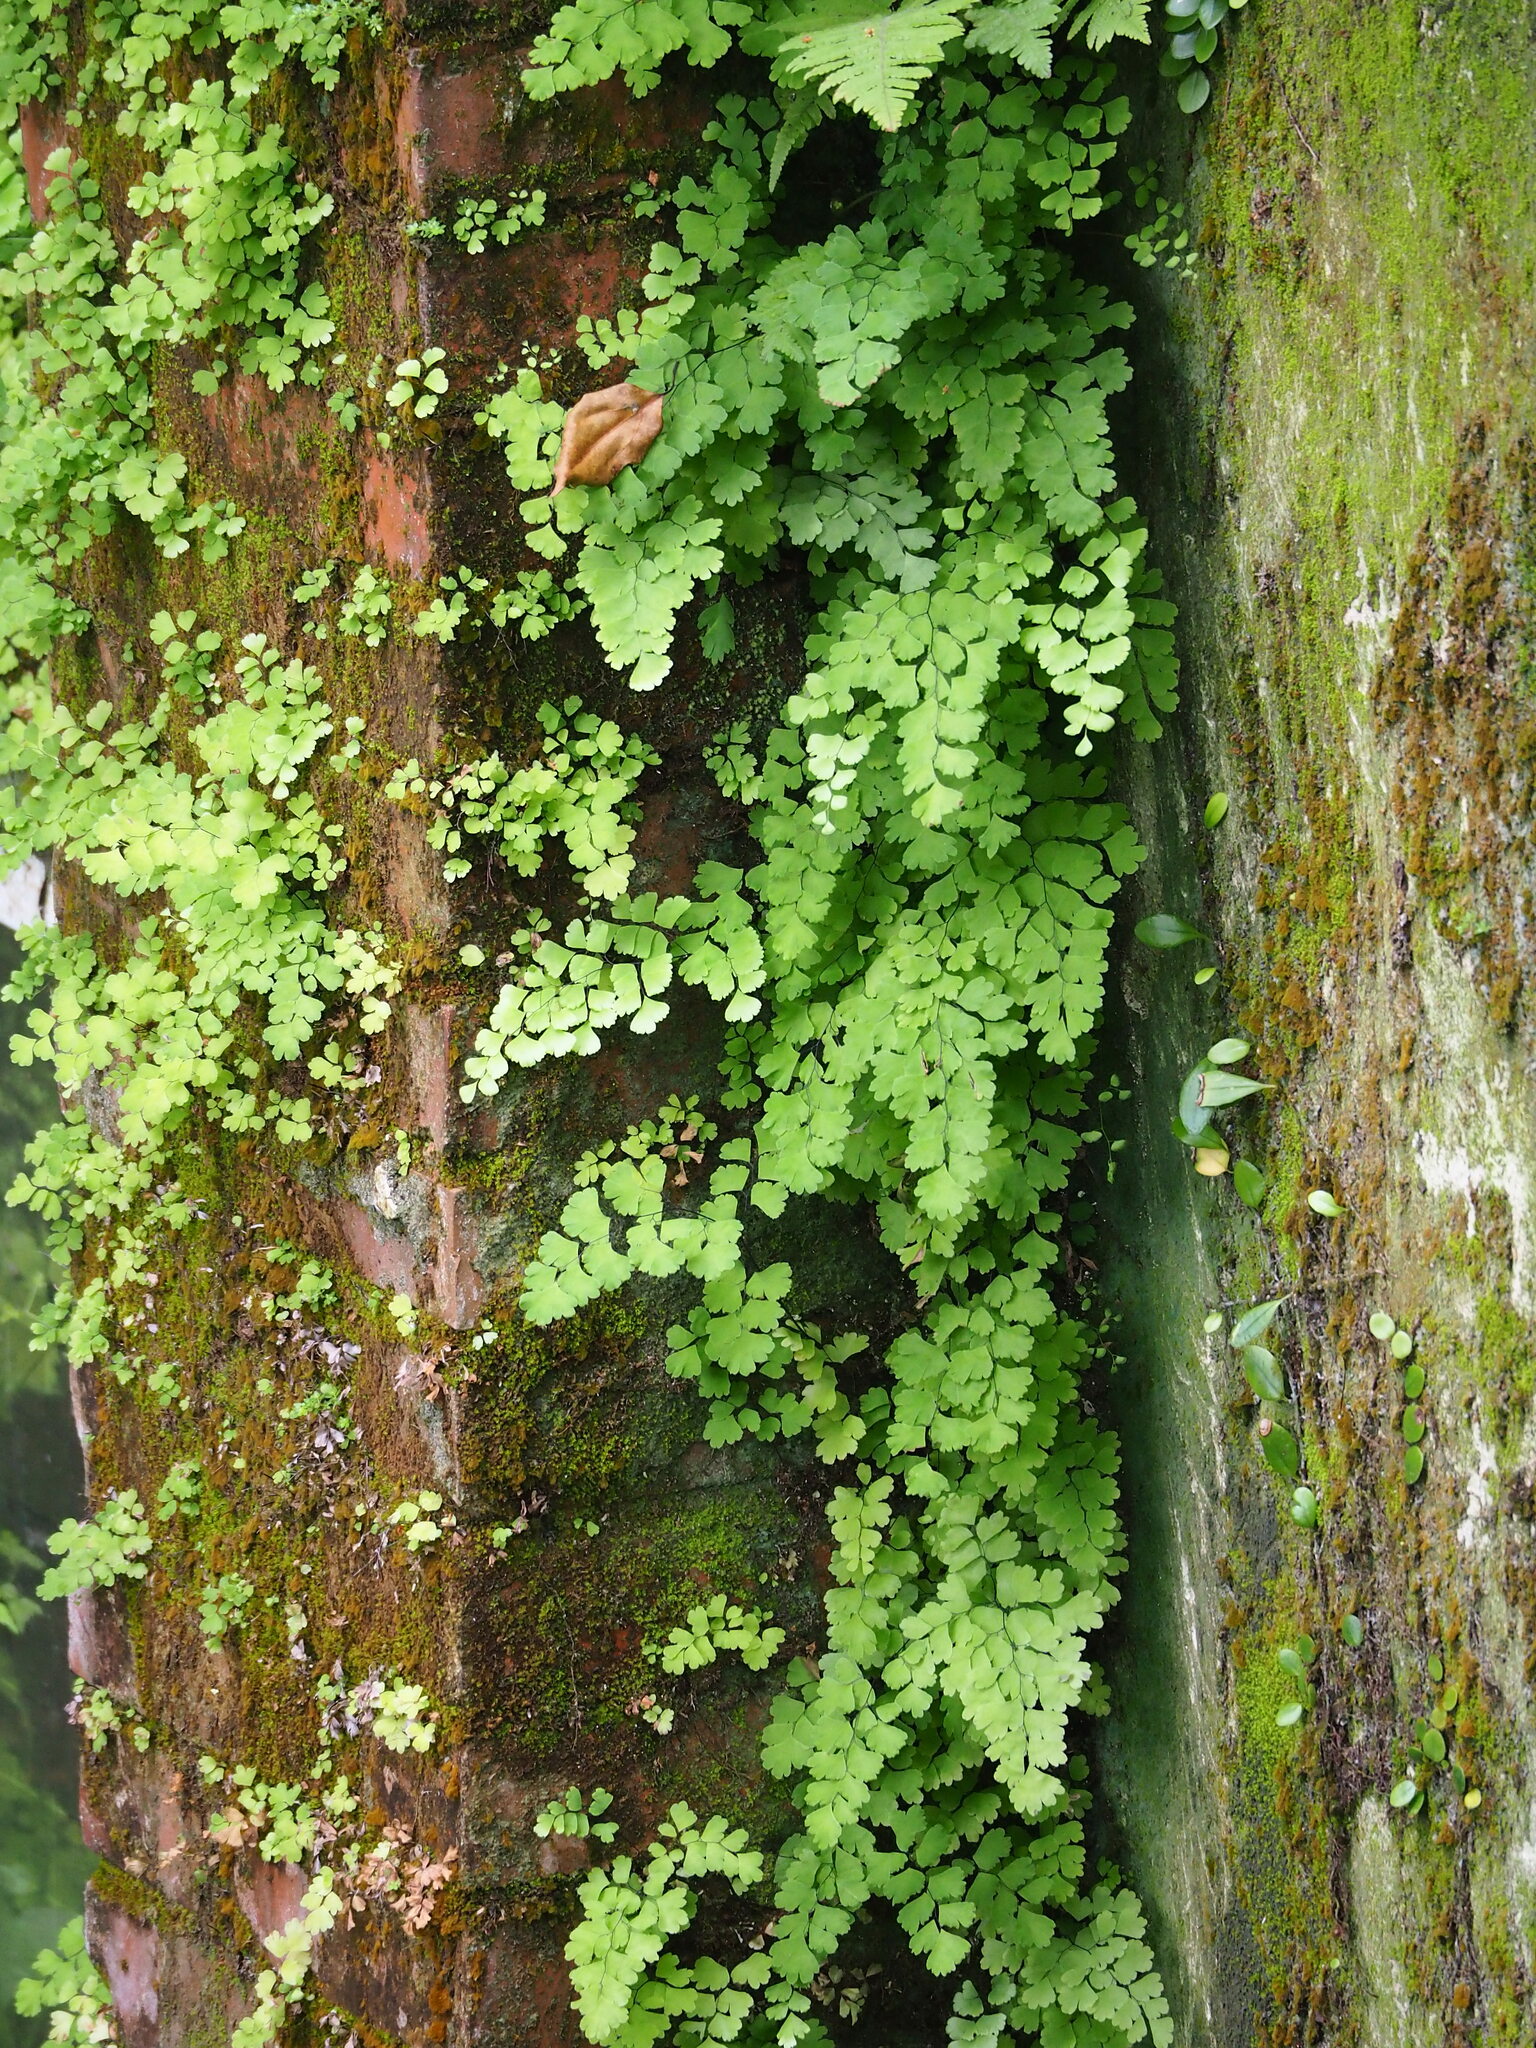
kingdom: Plantae
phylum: Tracheophyta
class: Polypodiopsida
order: Polypodiales
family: Pteridaceae
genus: Adiantum
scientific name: Adiantum capillus-veneris
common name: Maidenhair fern
